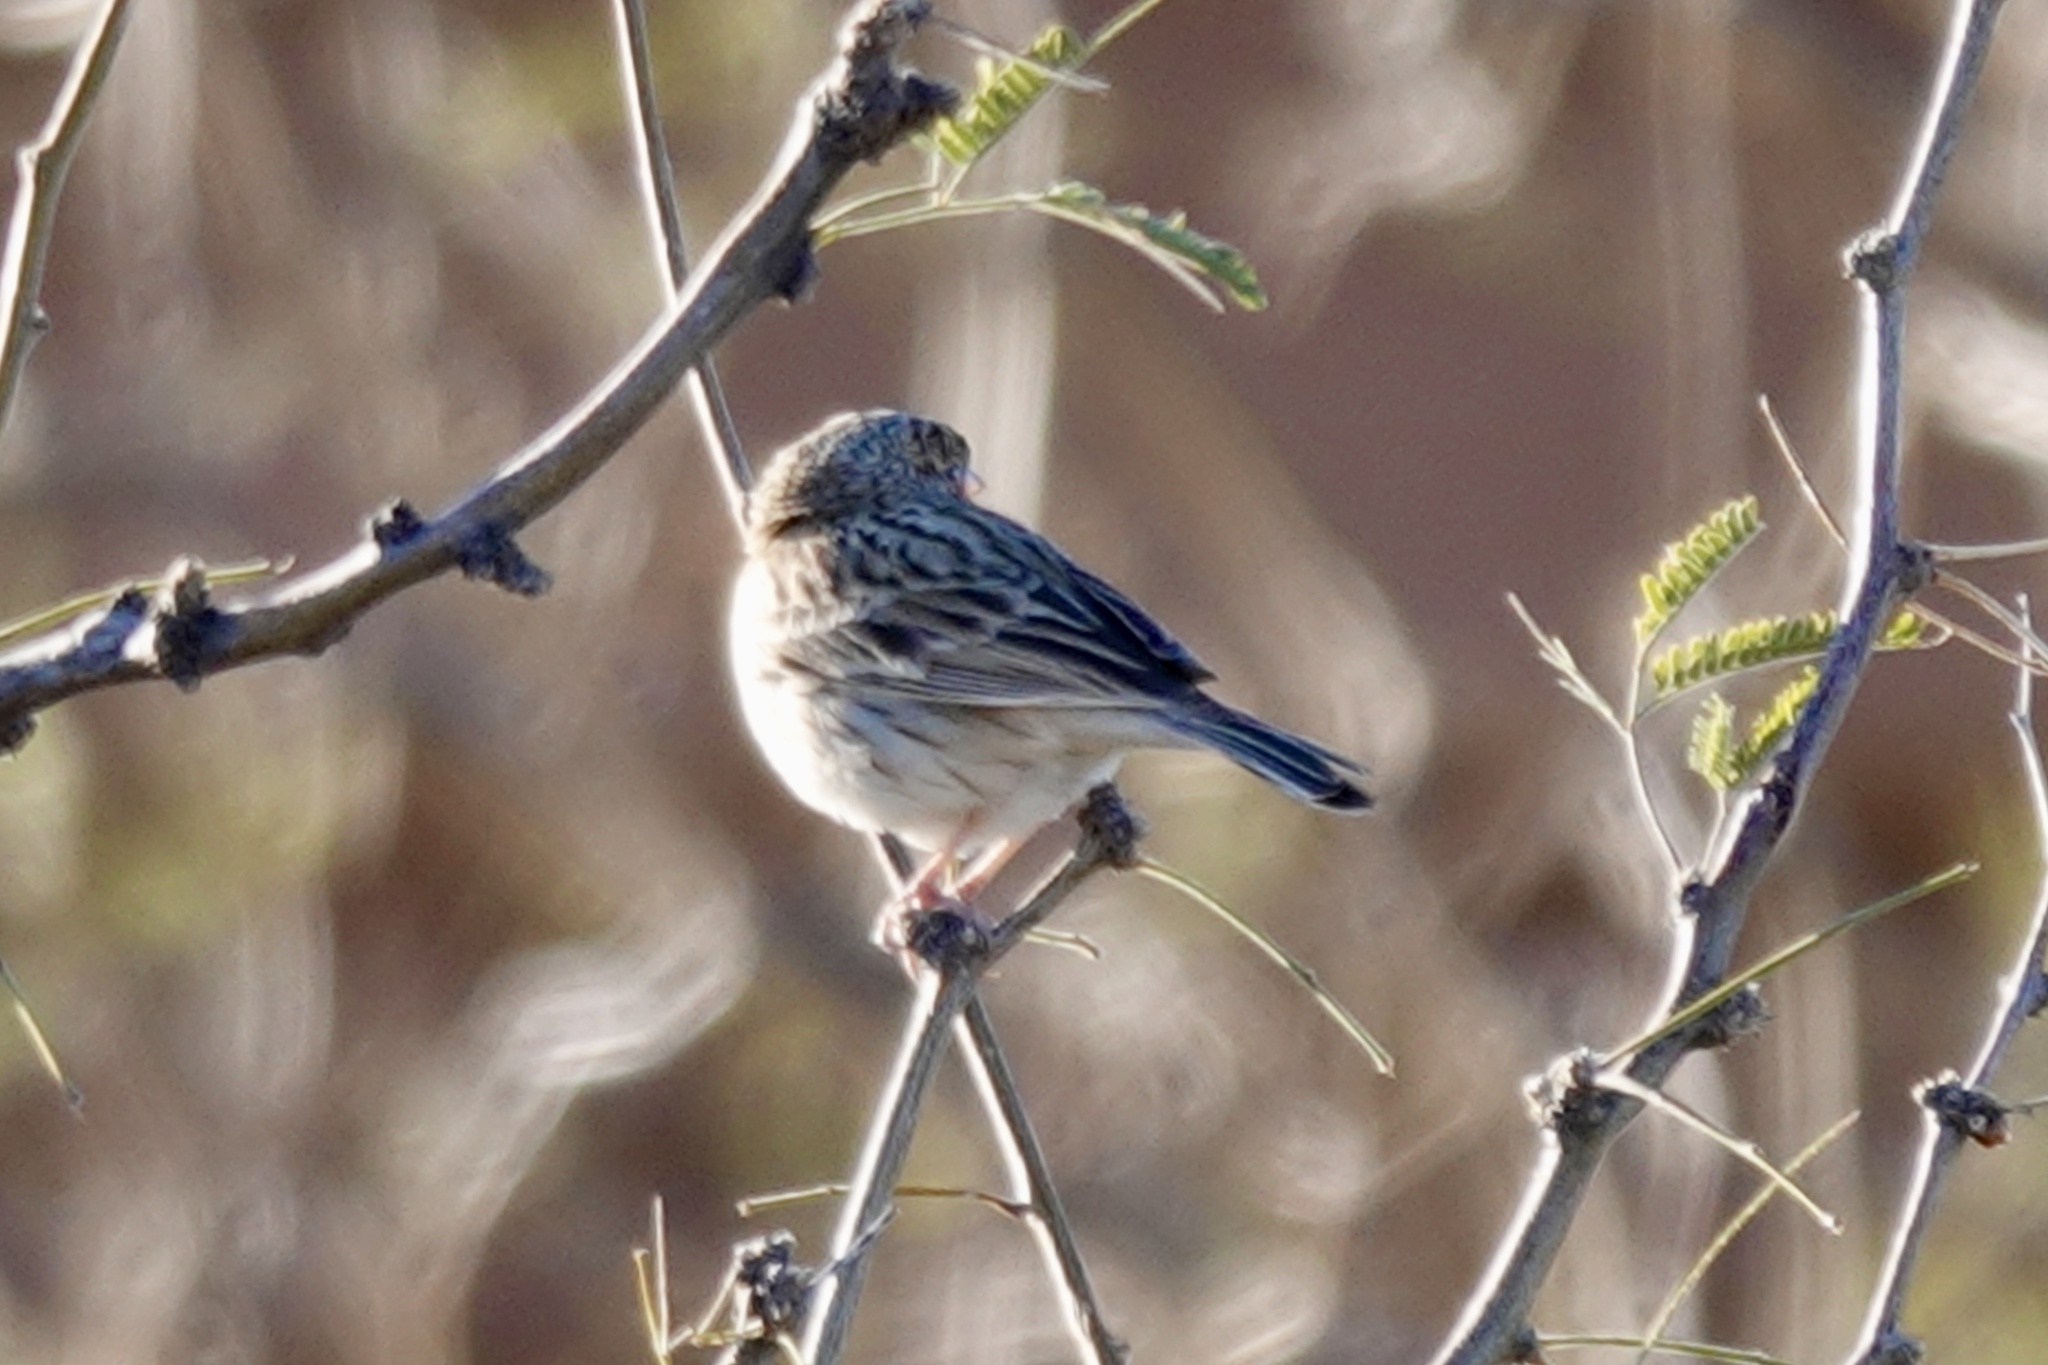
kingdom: Animalia
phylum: Chordata
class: Aves
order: Passeriformes
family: Passerellidae
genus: Pooecetes
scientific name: Pooecetes gramineus
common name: Vesper sparrow
